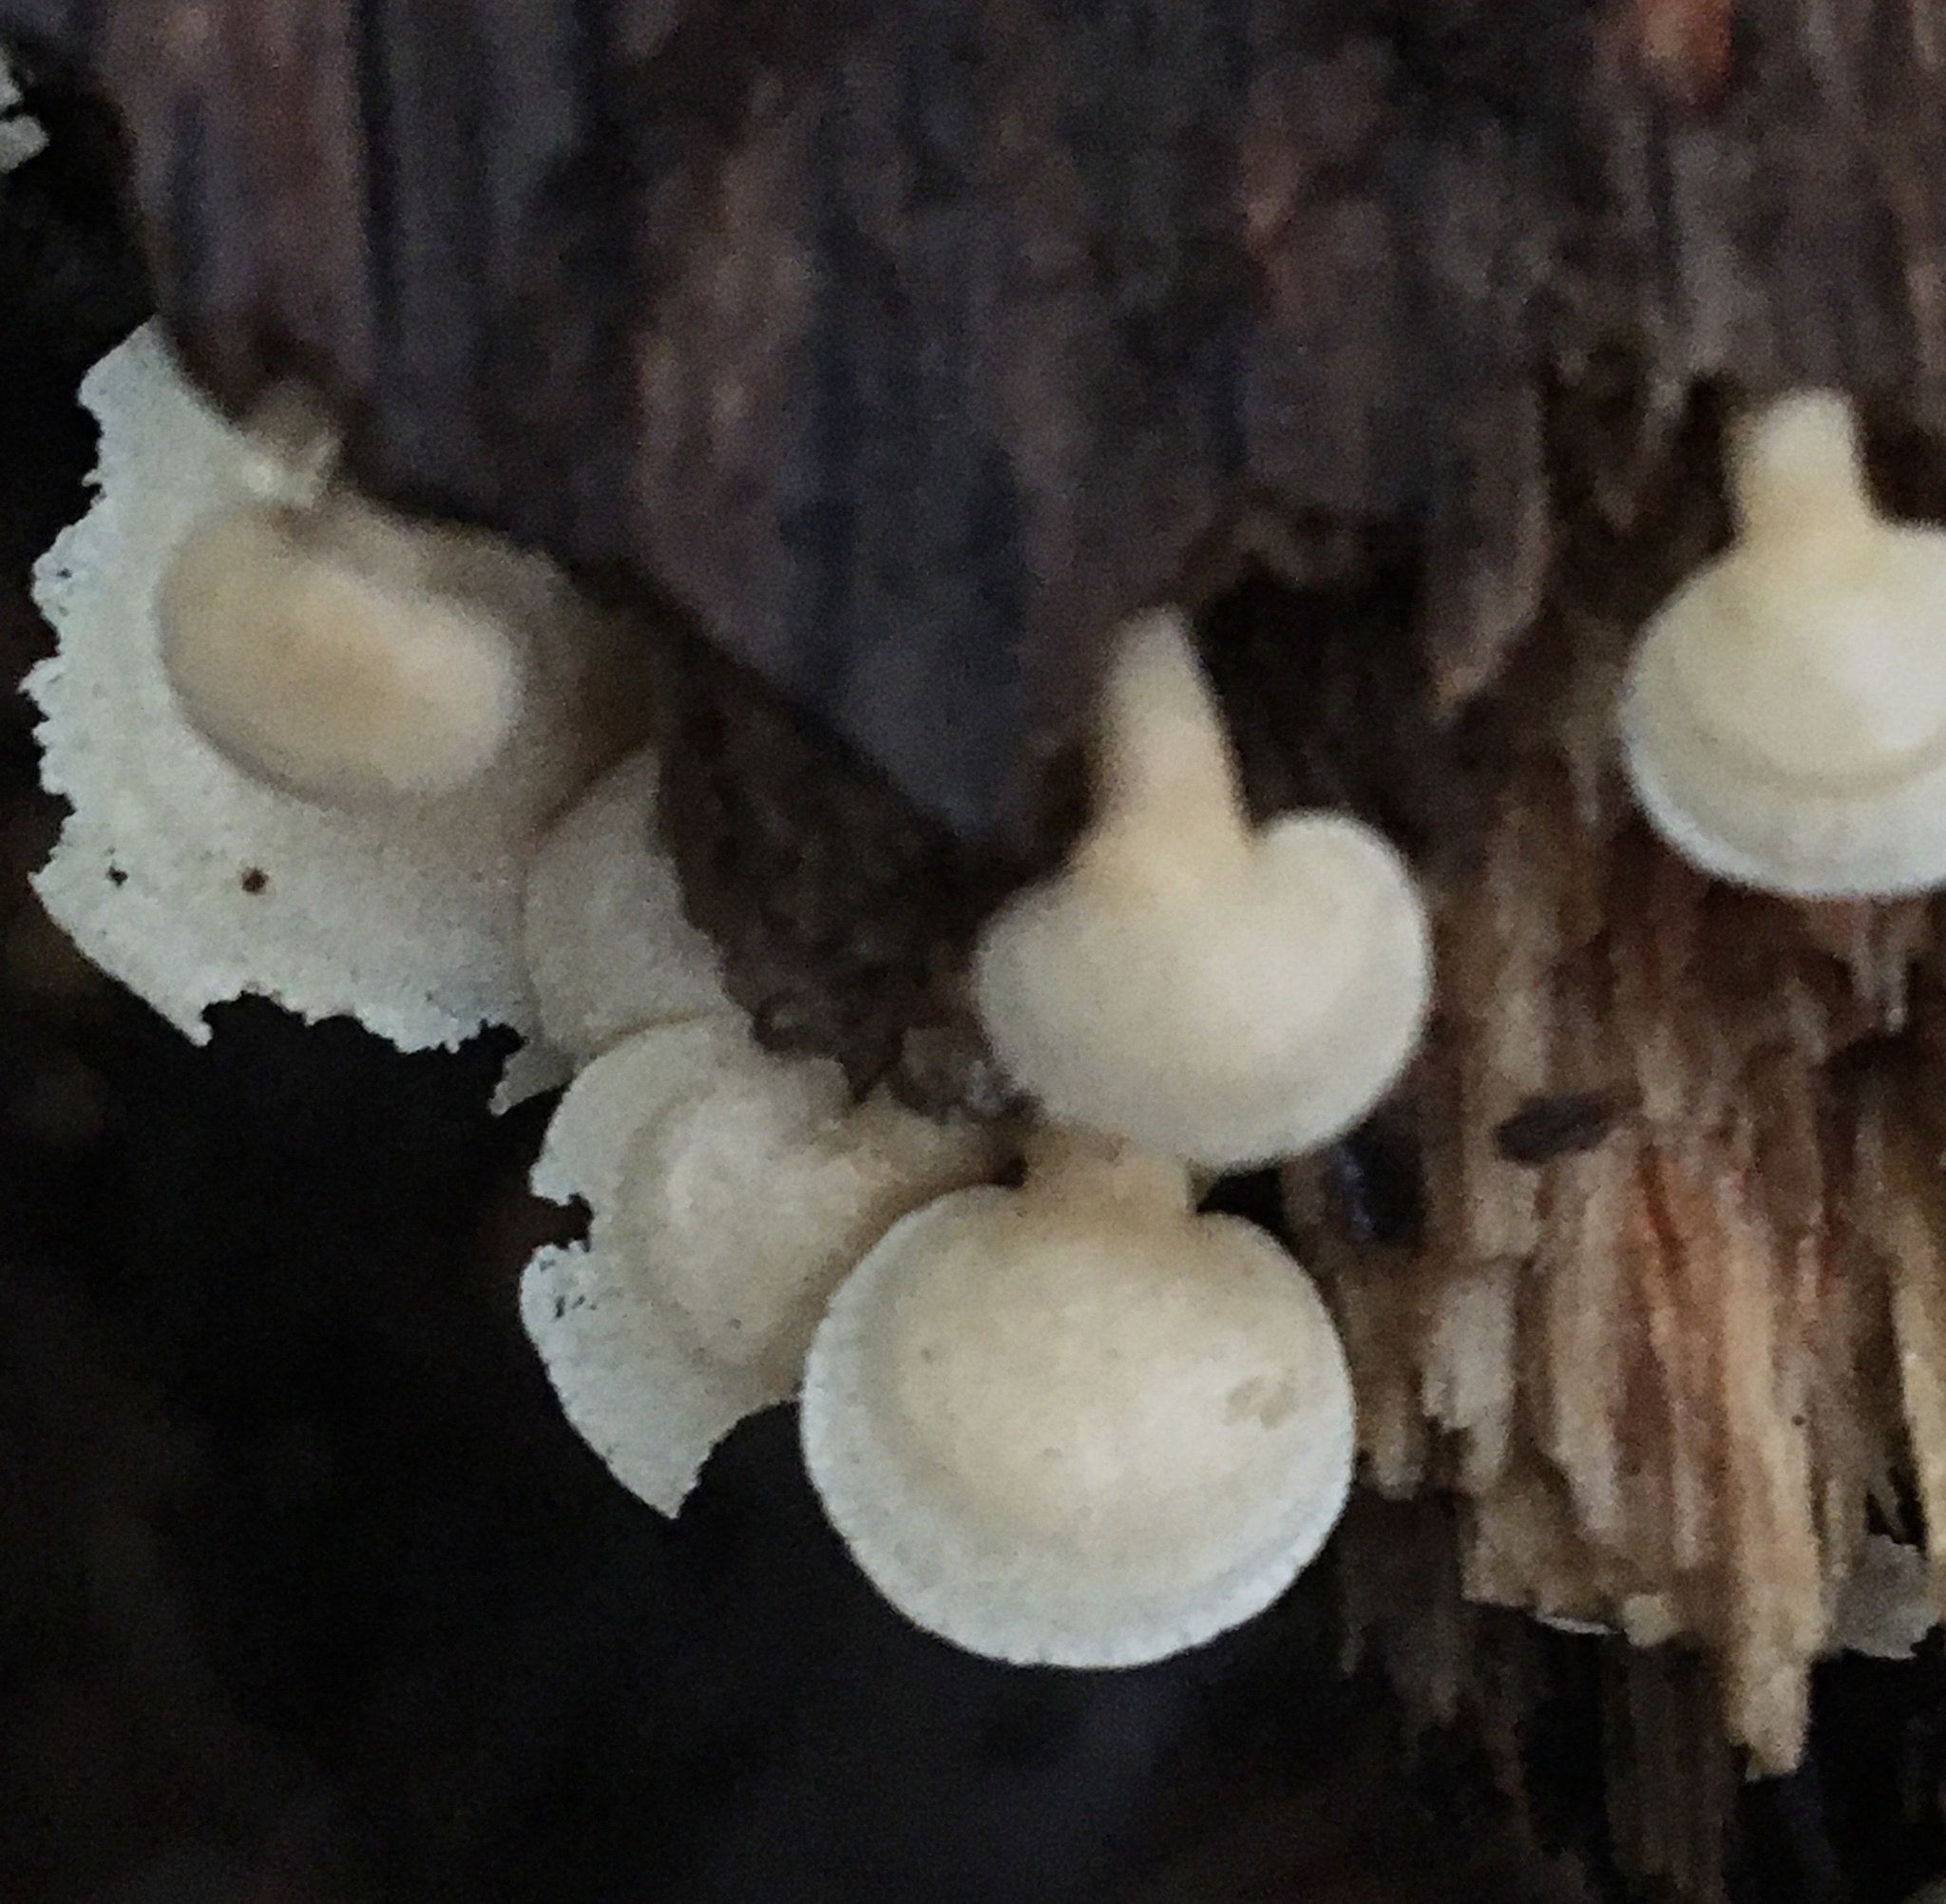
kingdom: Fungi
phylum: Basidiomycota
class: Agaricomycetes
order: Agaricales
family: Mycenaceae
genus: Panellus
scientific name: Panellus pusillus
